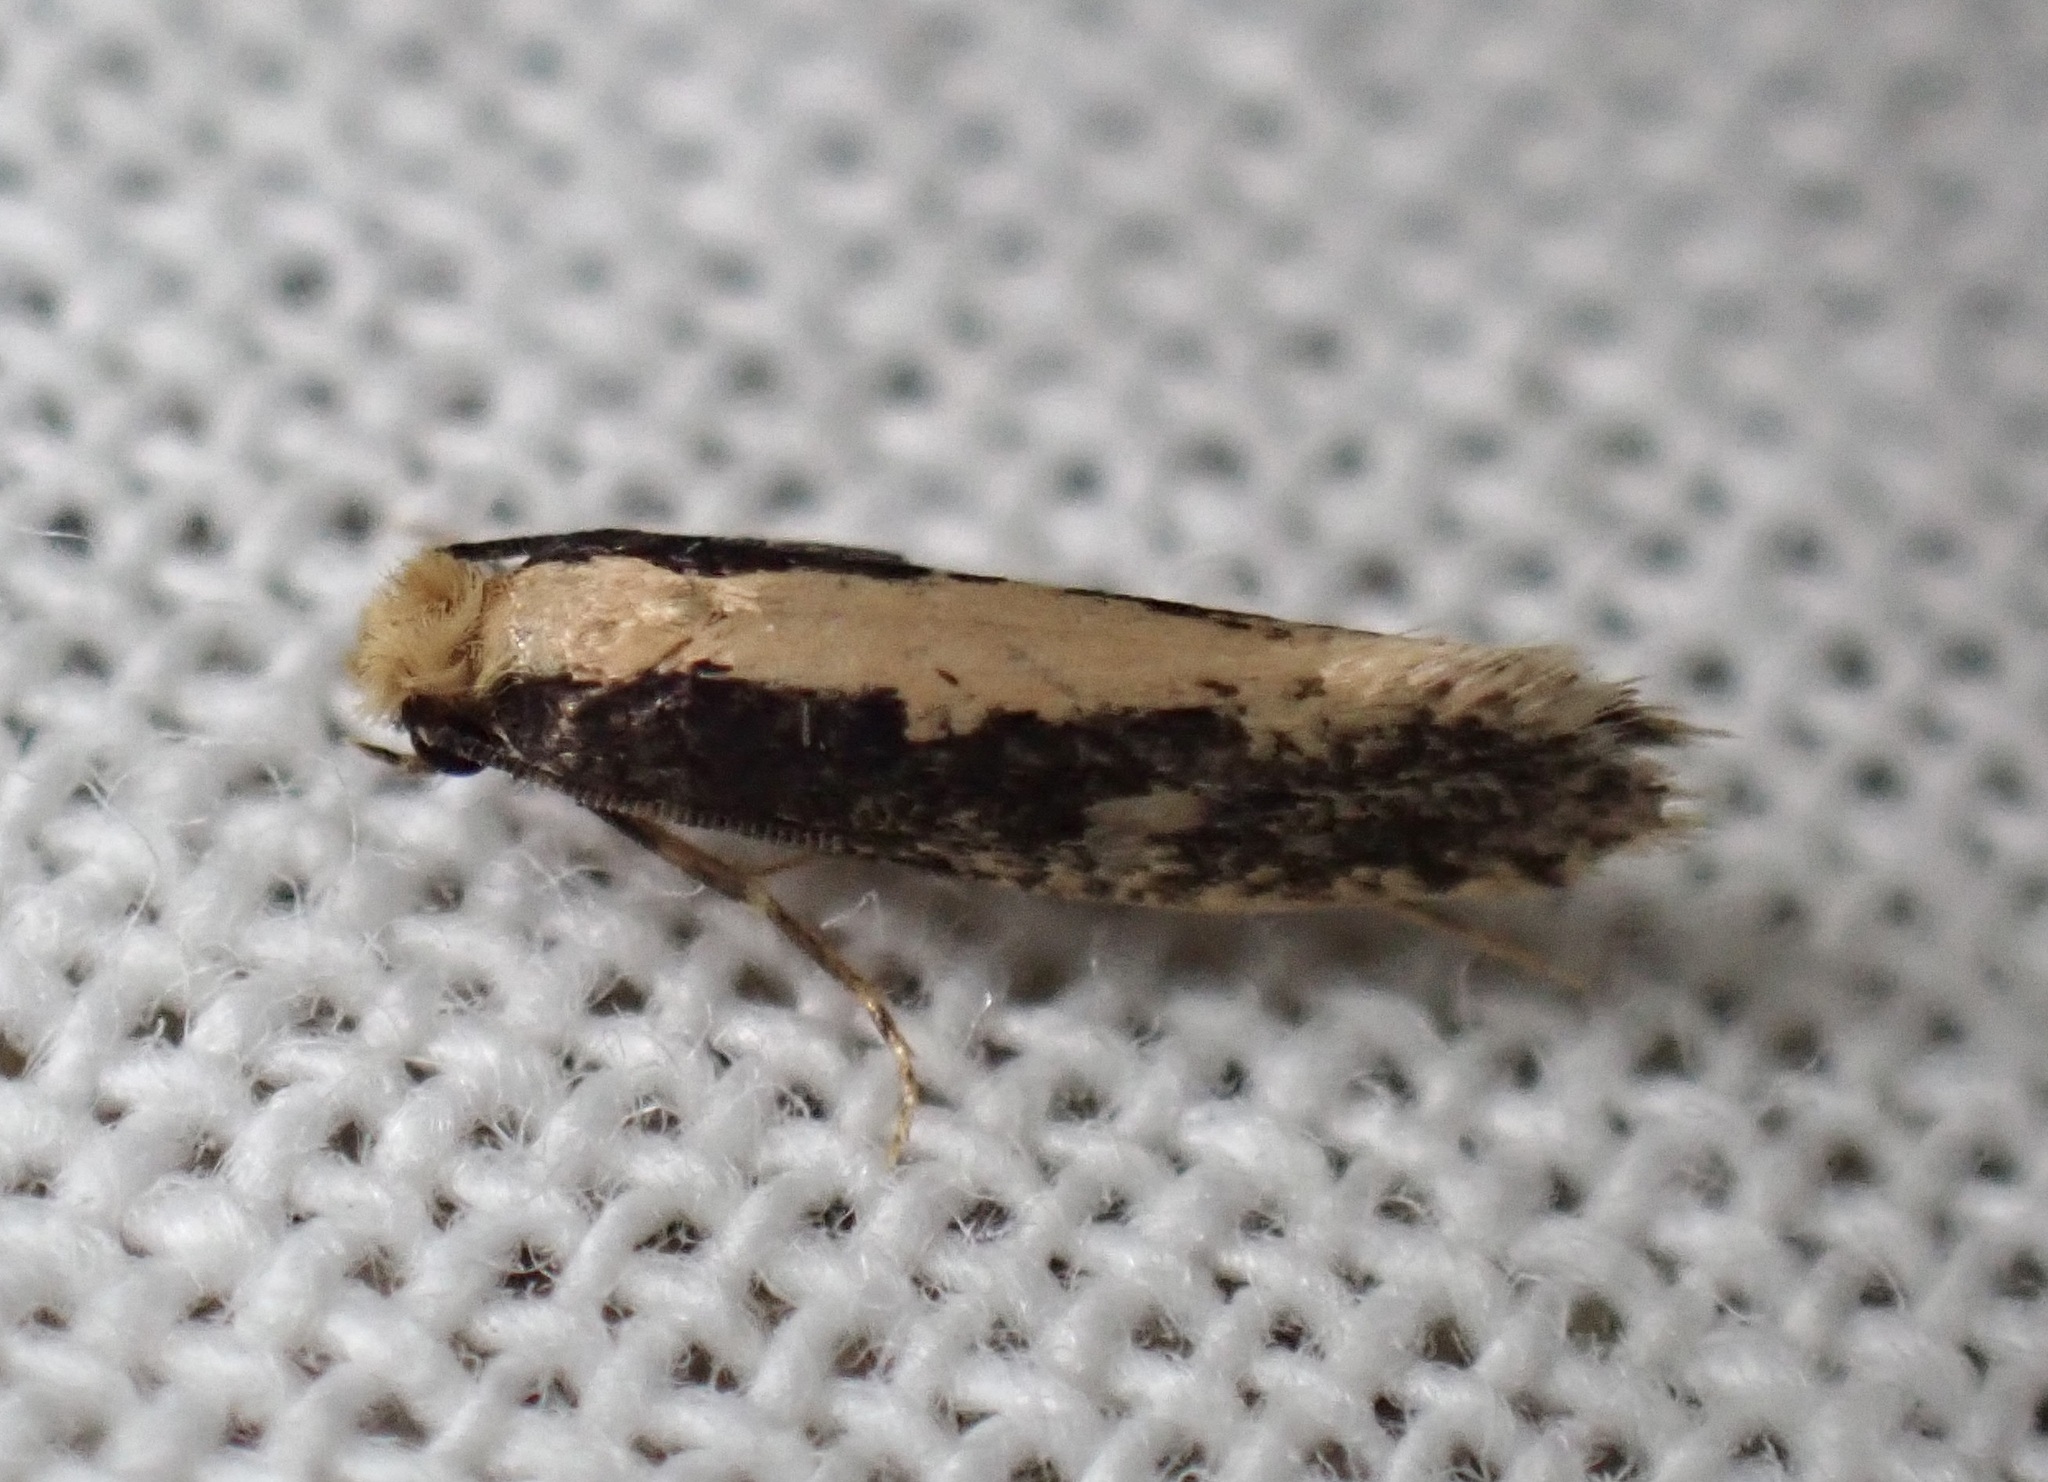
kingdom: Animalia
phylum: Arthropoda
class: Insecta
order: Lepidoptera
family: Tineidae
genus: Monopis
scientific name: Monopis crocicapitella
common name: Moth
